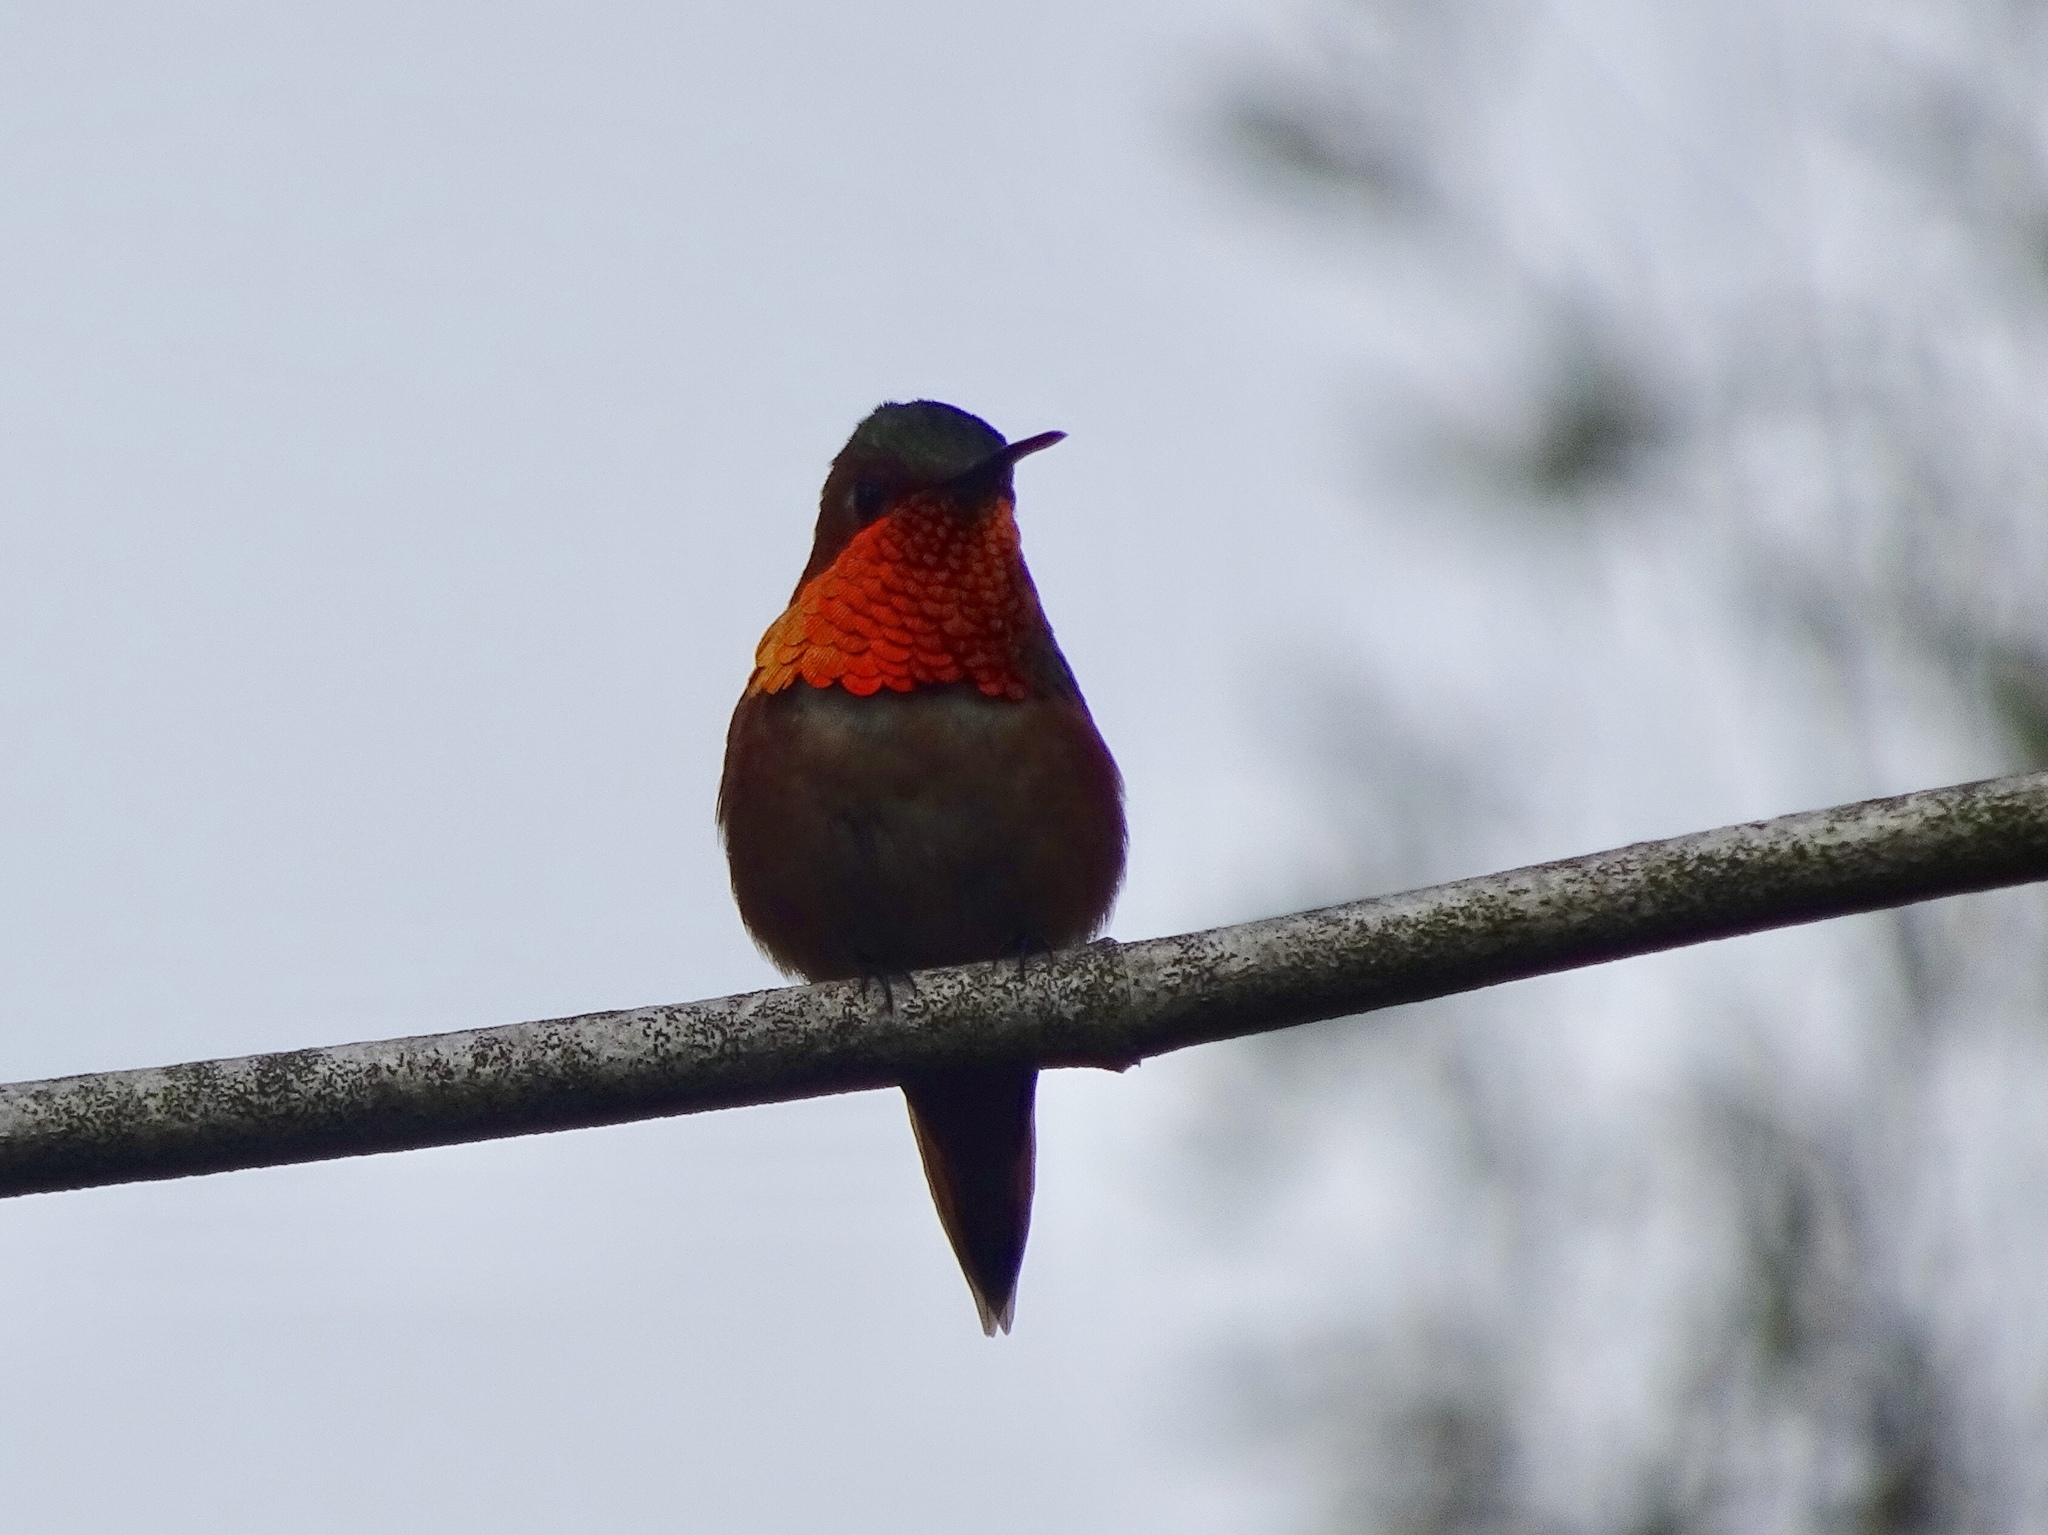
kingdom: Animalia
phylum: Chordata
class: Aves
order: Apodiformes
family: Trochilidae
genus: Selasphorus
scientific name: Selasphorus sasin
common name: Allen's hummingbird
